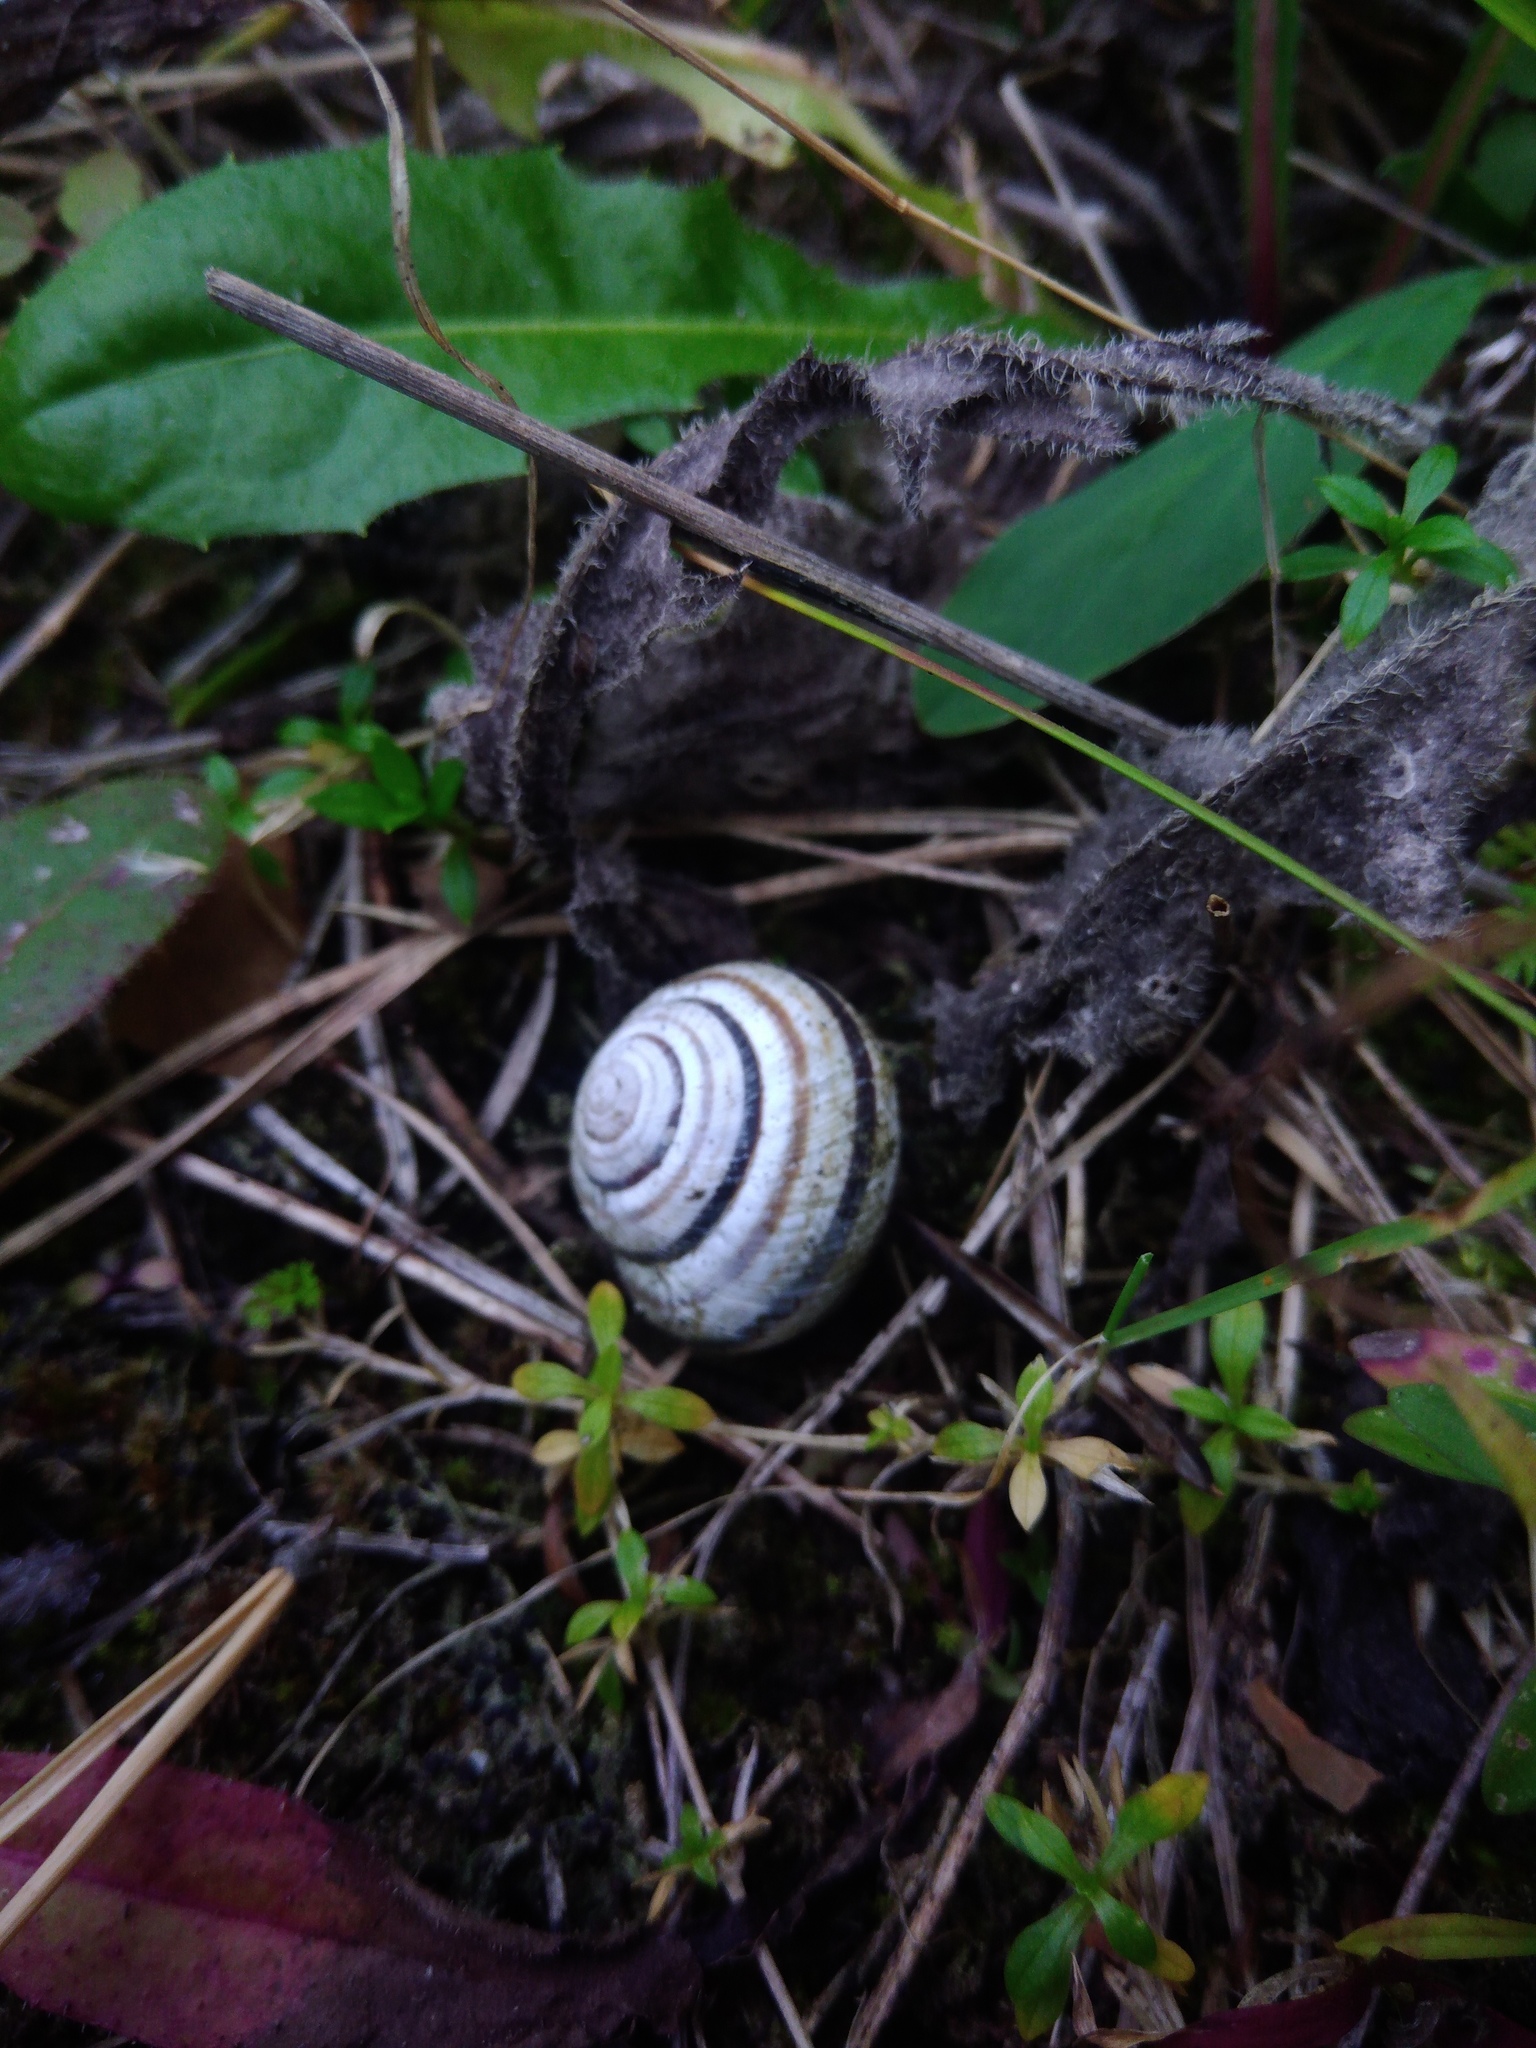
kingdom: Animalia
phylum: Mollusca
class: Gastropoda
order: Stylommatophora
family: Helicidae
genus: Caucasotachea
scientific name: Caucasotachea vindobonensis
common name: European helicid land snail
